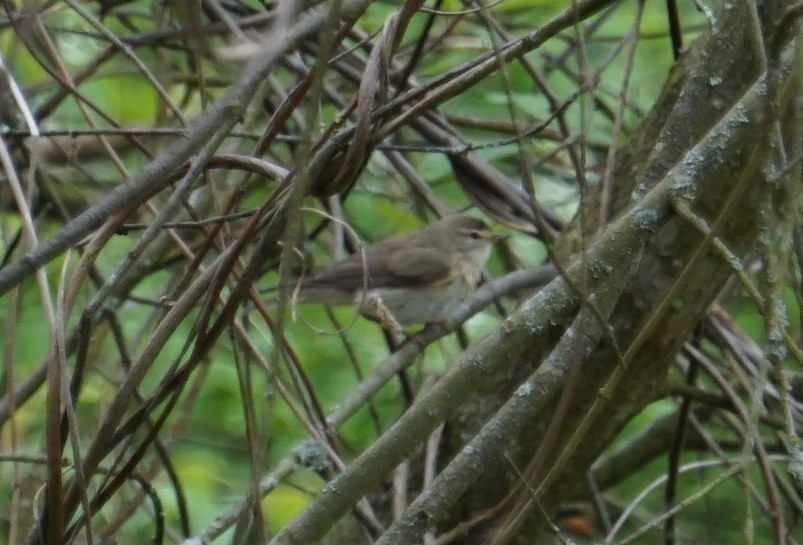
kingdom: Animalia
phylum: Chordata
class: Aves
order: Passeriformes
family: Phylloscopidae
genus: Phylloscopus
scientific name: Phylloscopus trochilus
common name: Willow warbler
